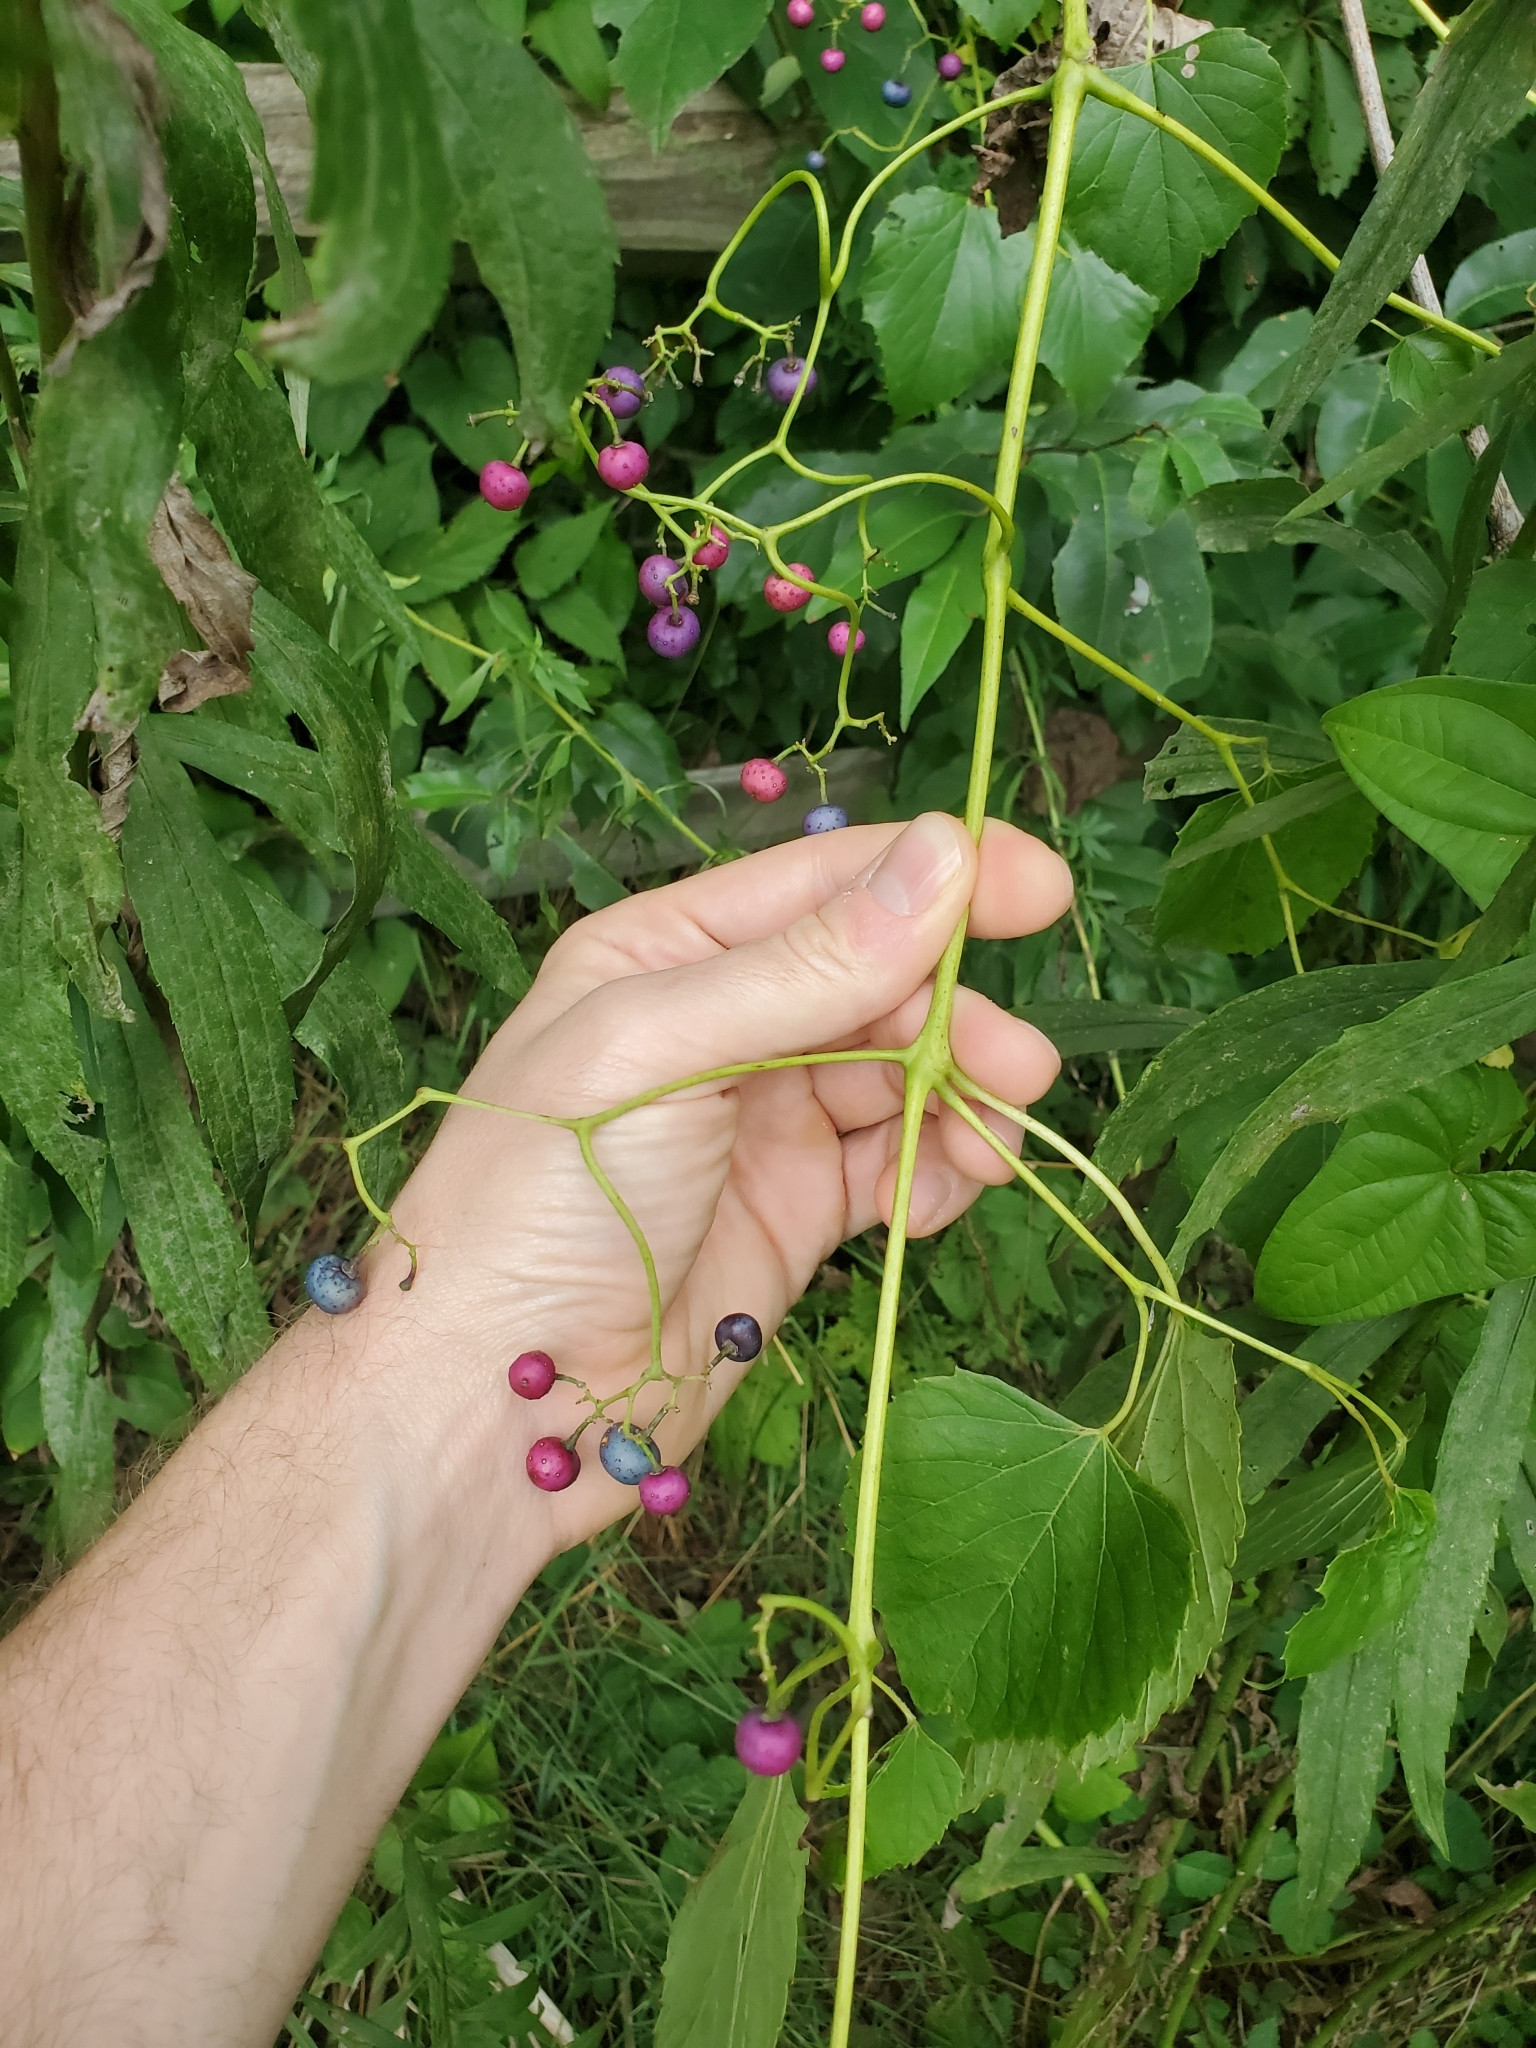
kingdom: Plantae
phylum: Tracheophyta
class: Magnoliopsida
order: Vitales
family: Vitaceae
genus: Ampelopsis
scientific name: Ampelopsis cordata
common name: Heart-leaf ampelopsis
